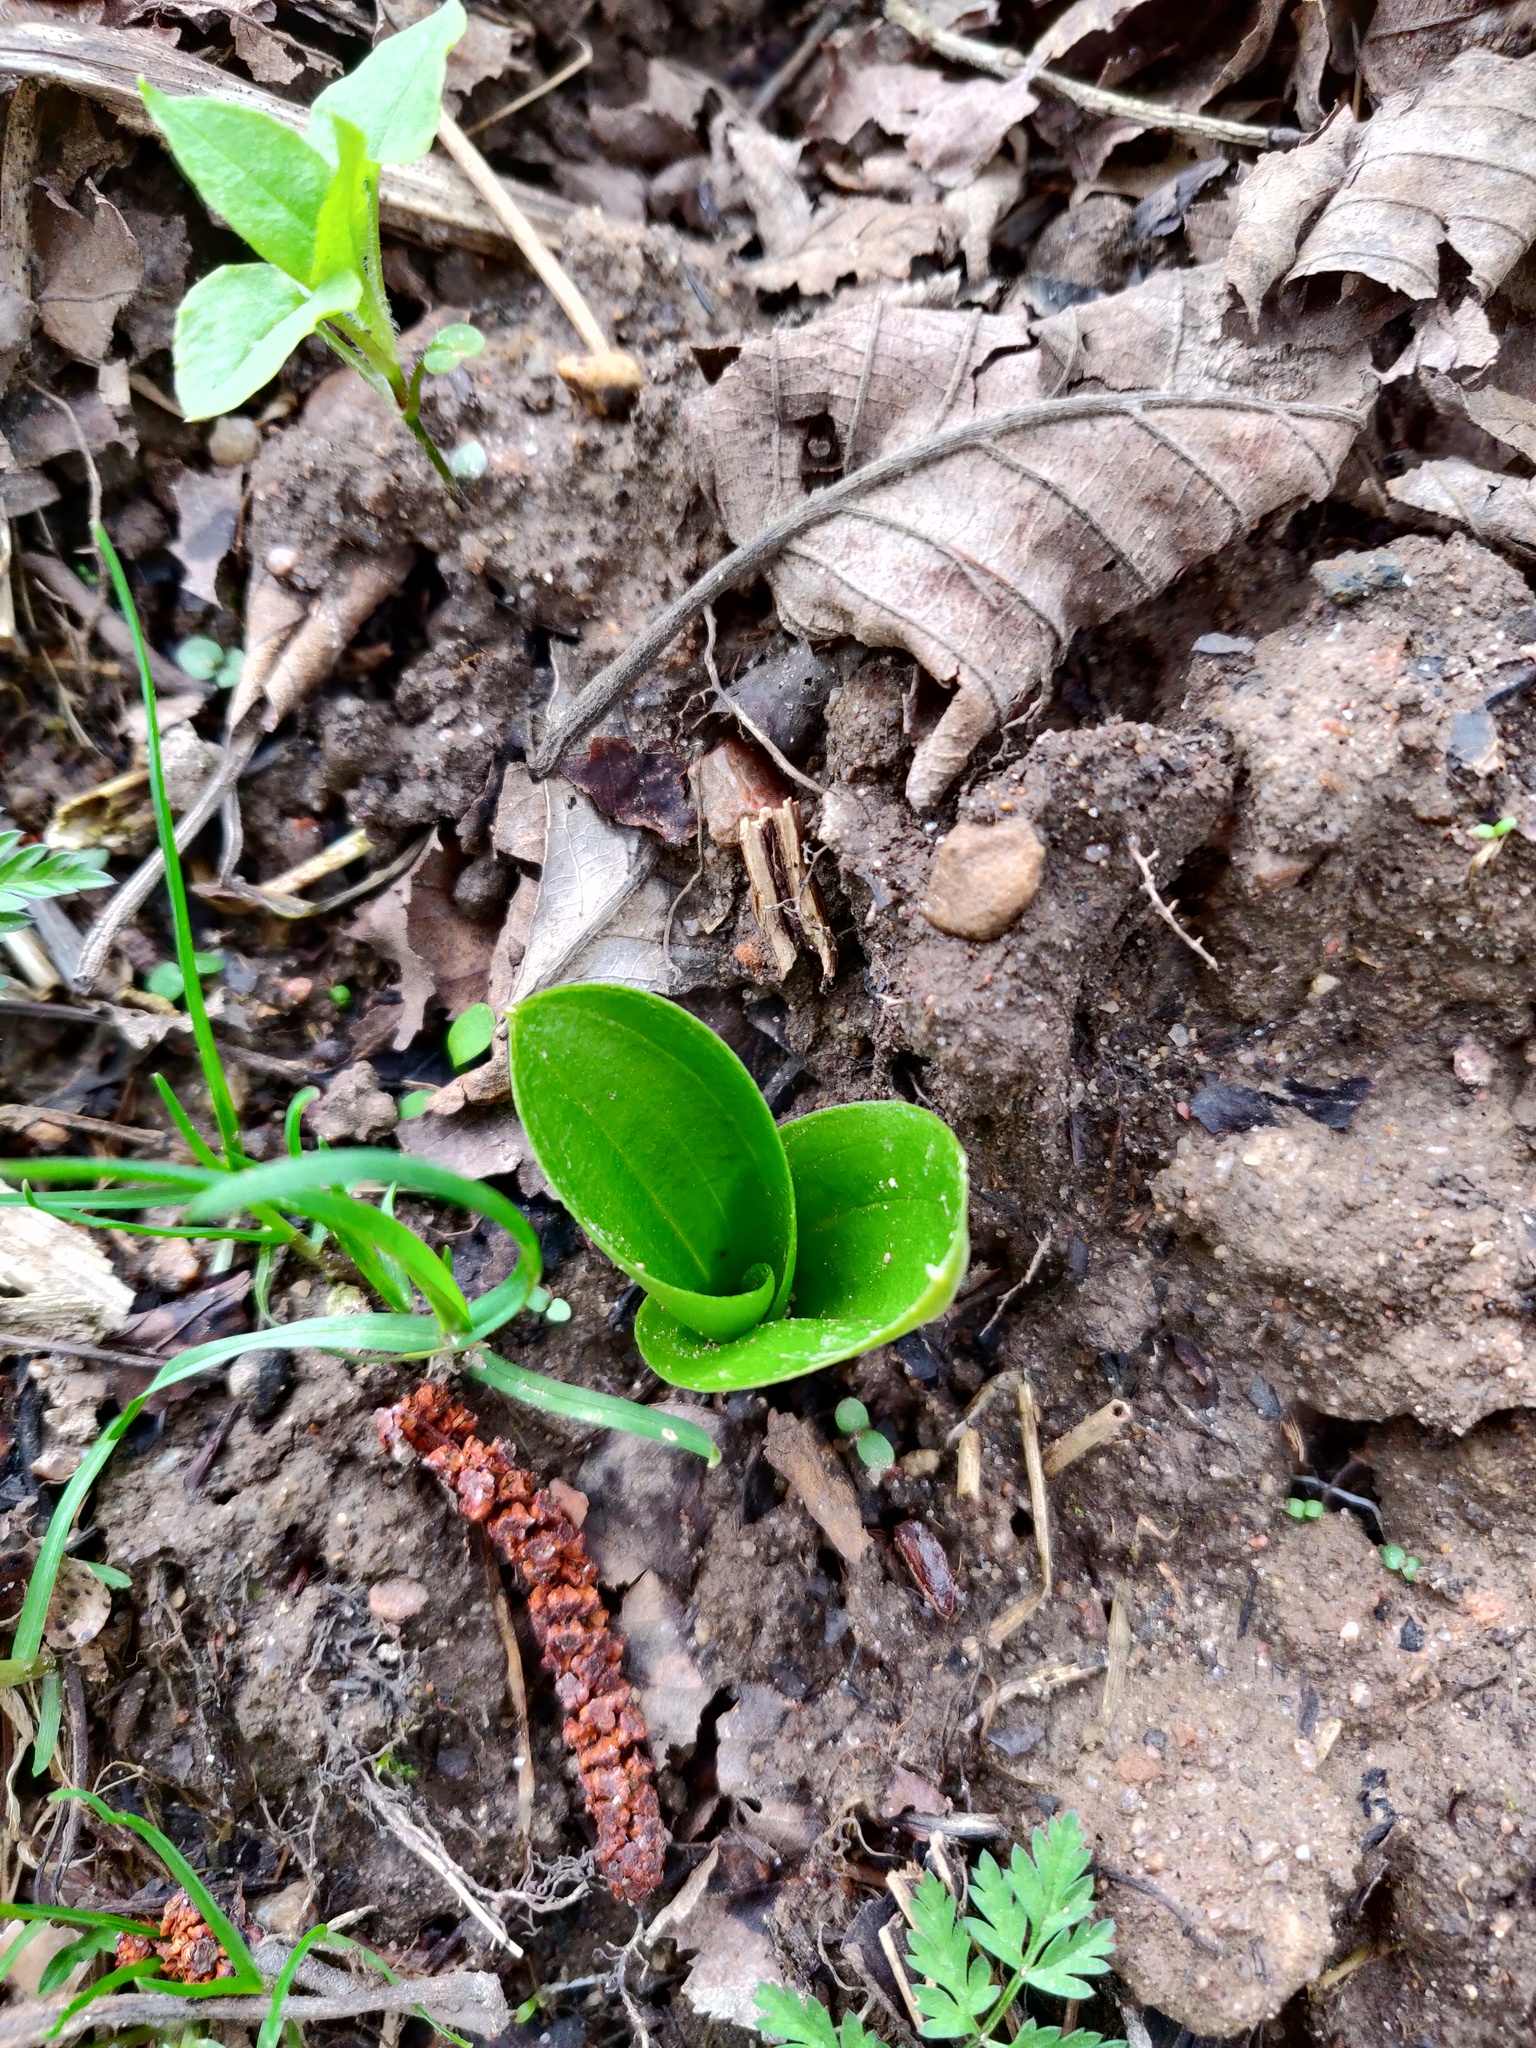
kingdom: Plantae
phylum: Tracheophyta
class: Liliopsida
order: Asparagales
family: Orchidaceae
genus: Neottia
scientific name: Neottia ovata
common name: Common twayblade
